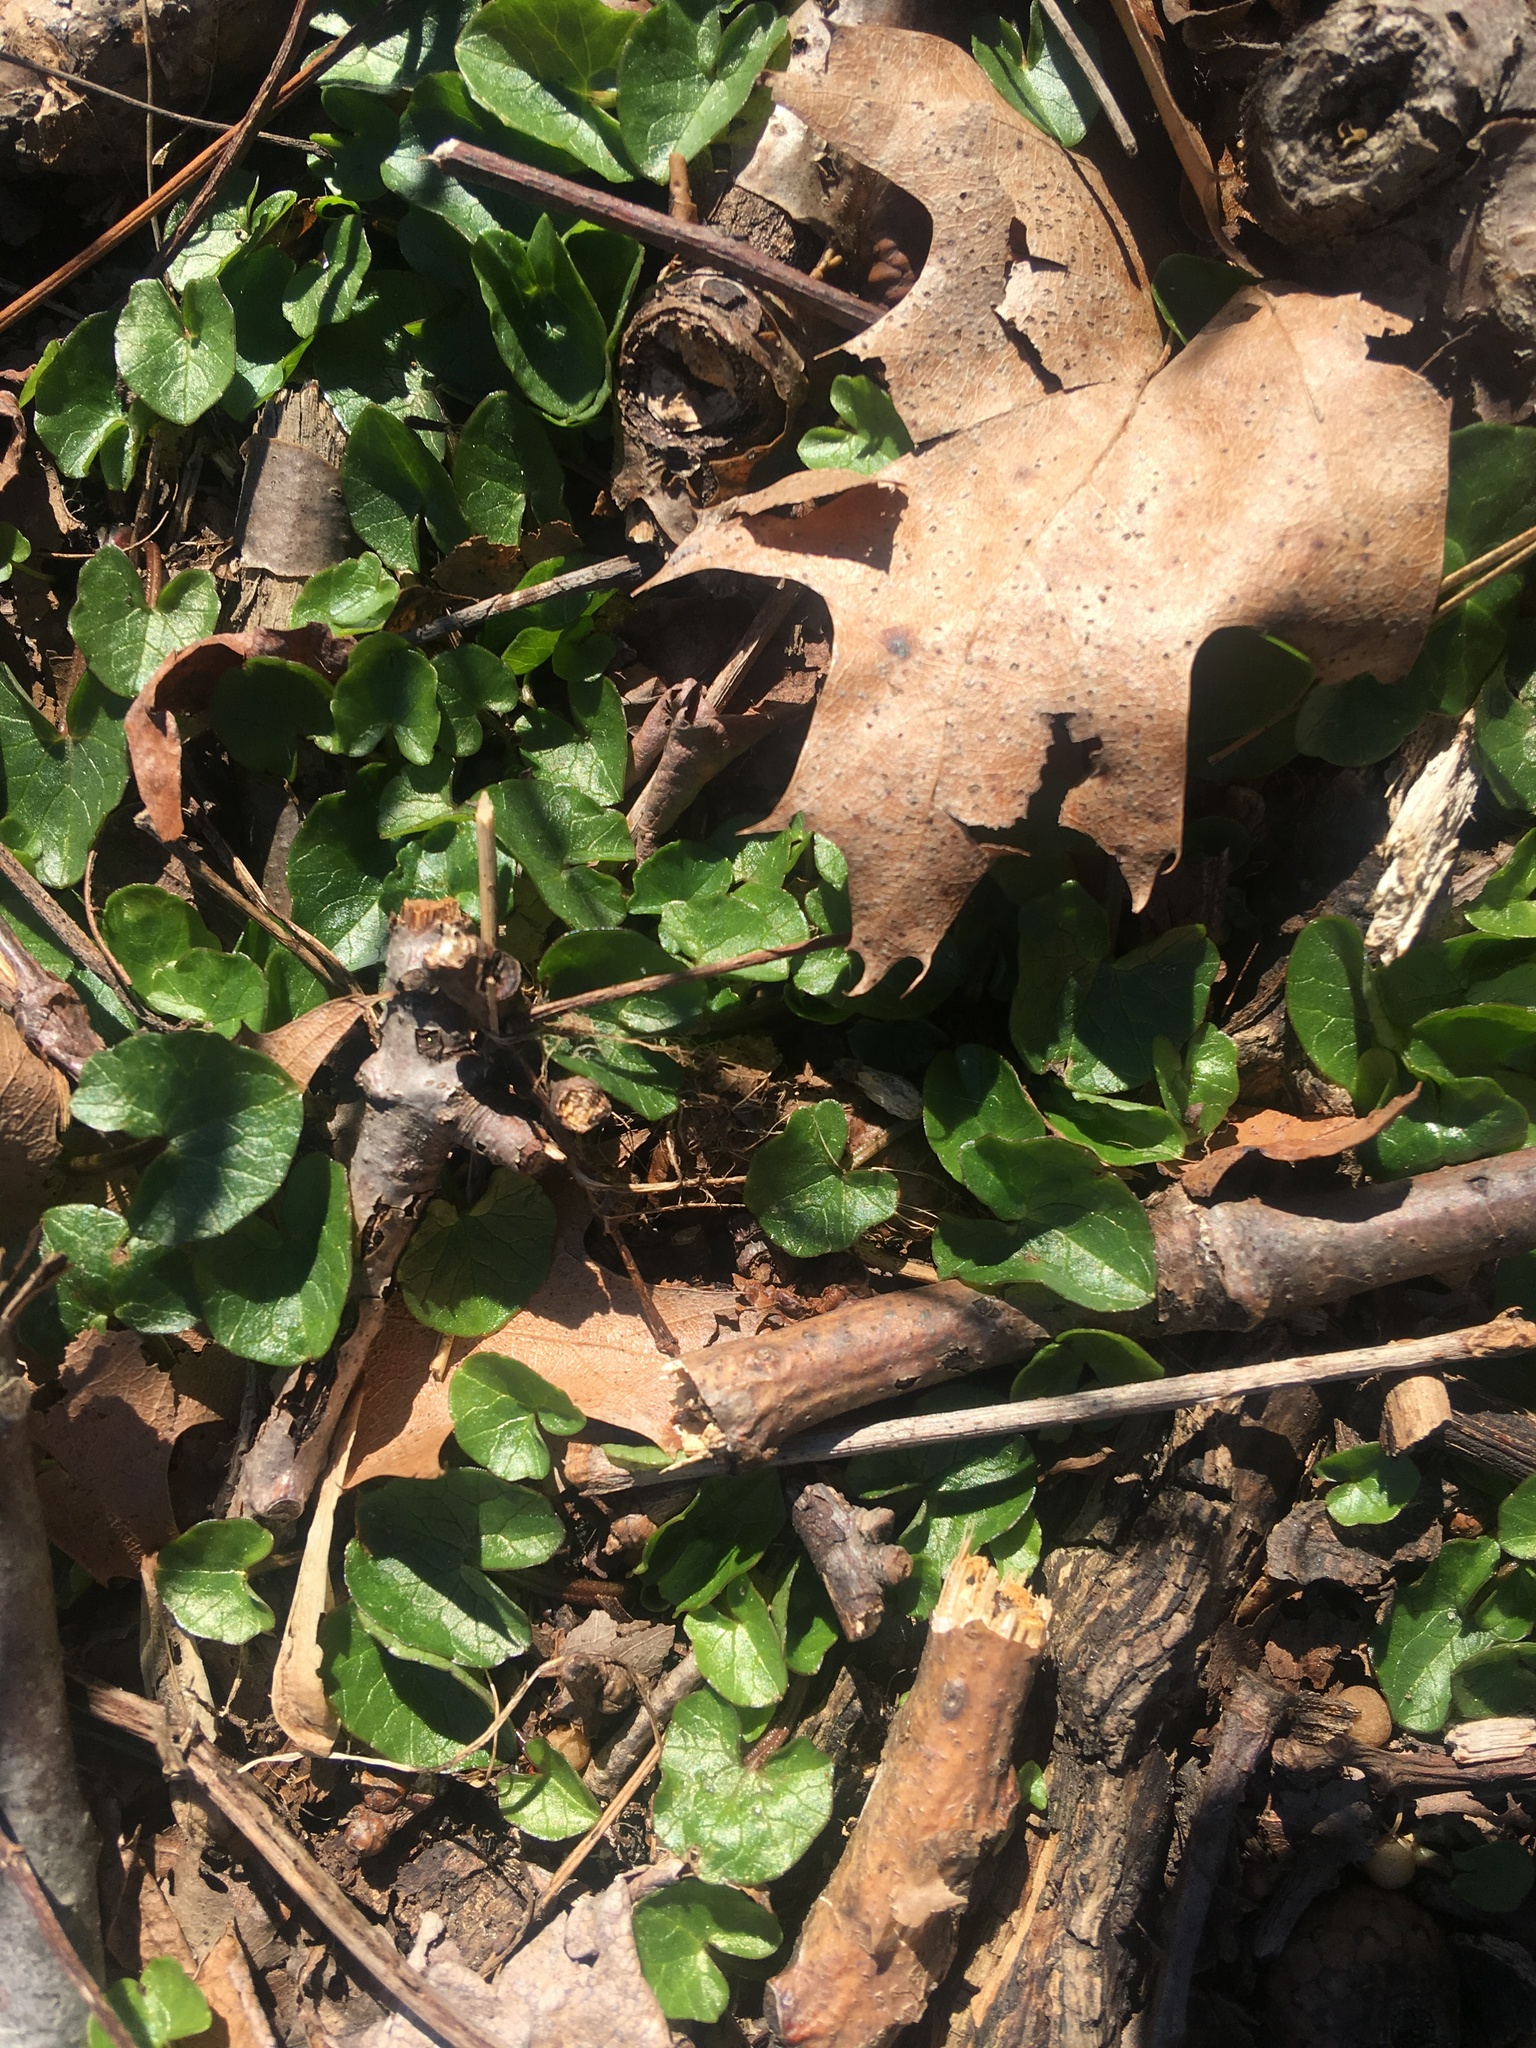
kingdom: Plantae
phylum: Tracheophyta
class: Magnoliopsida
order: Ranunculales
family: Ranunculaceae
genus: Ficaria
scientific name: Ficaria verna
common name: Lesser celandine
